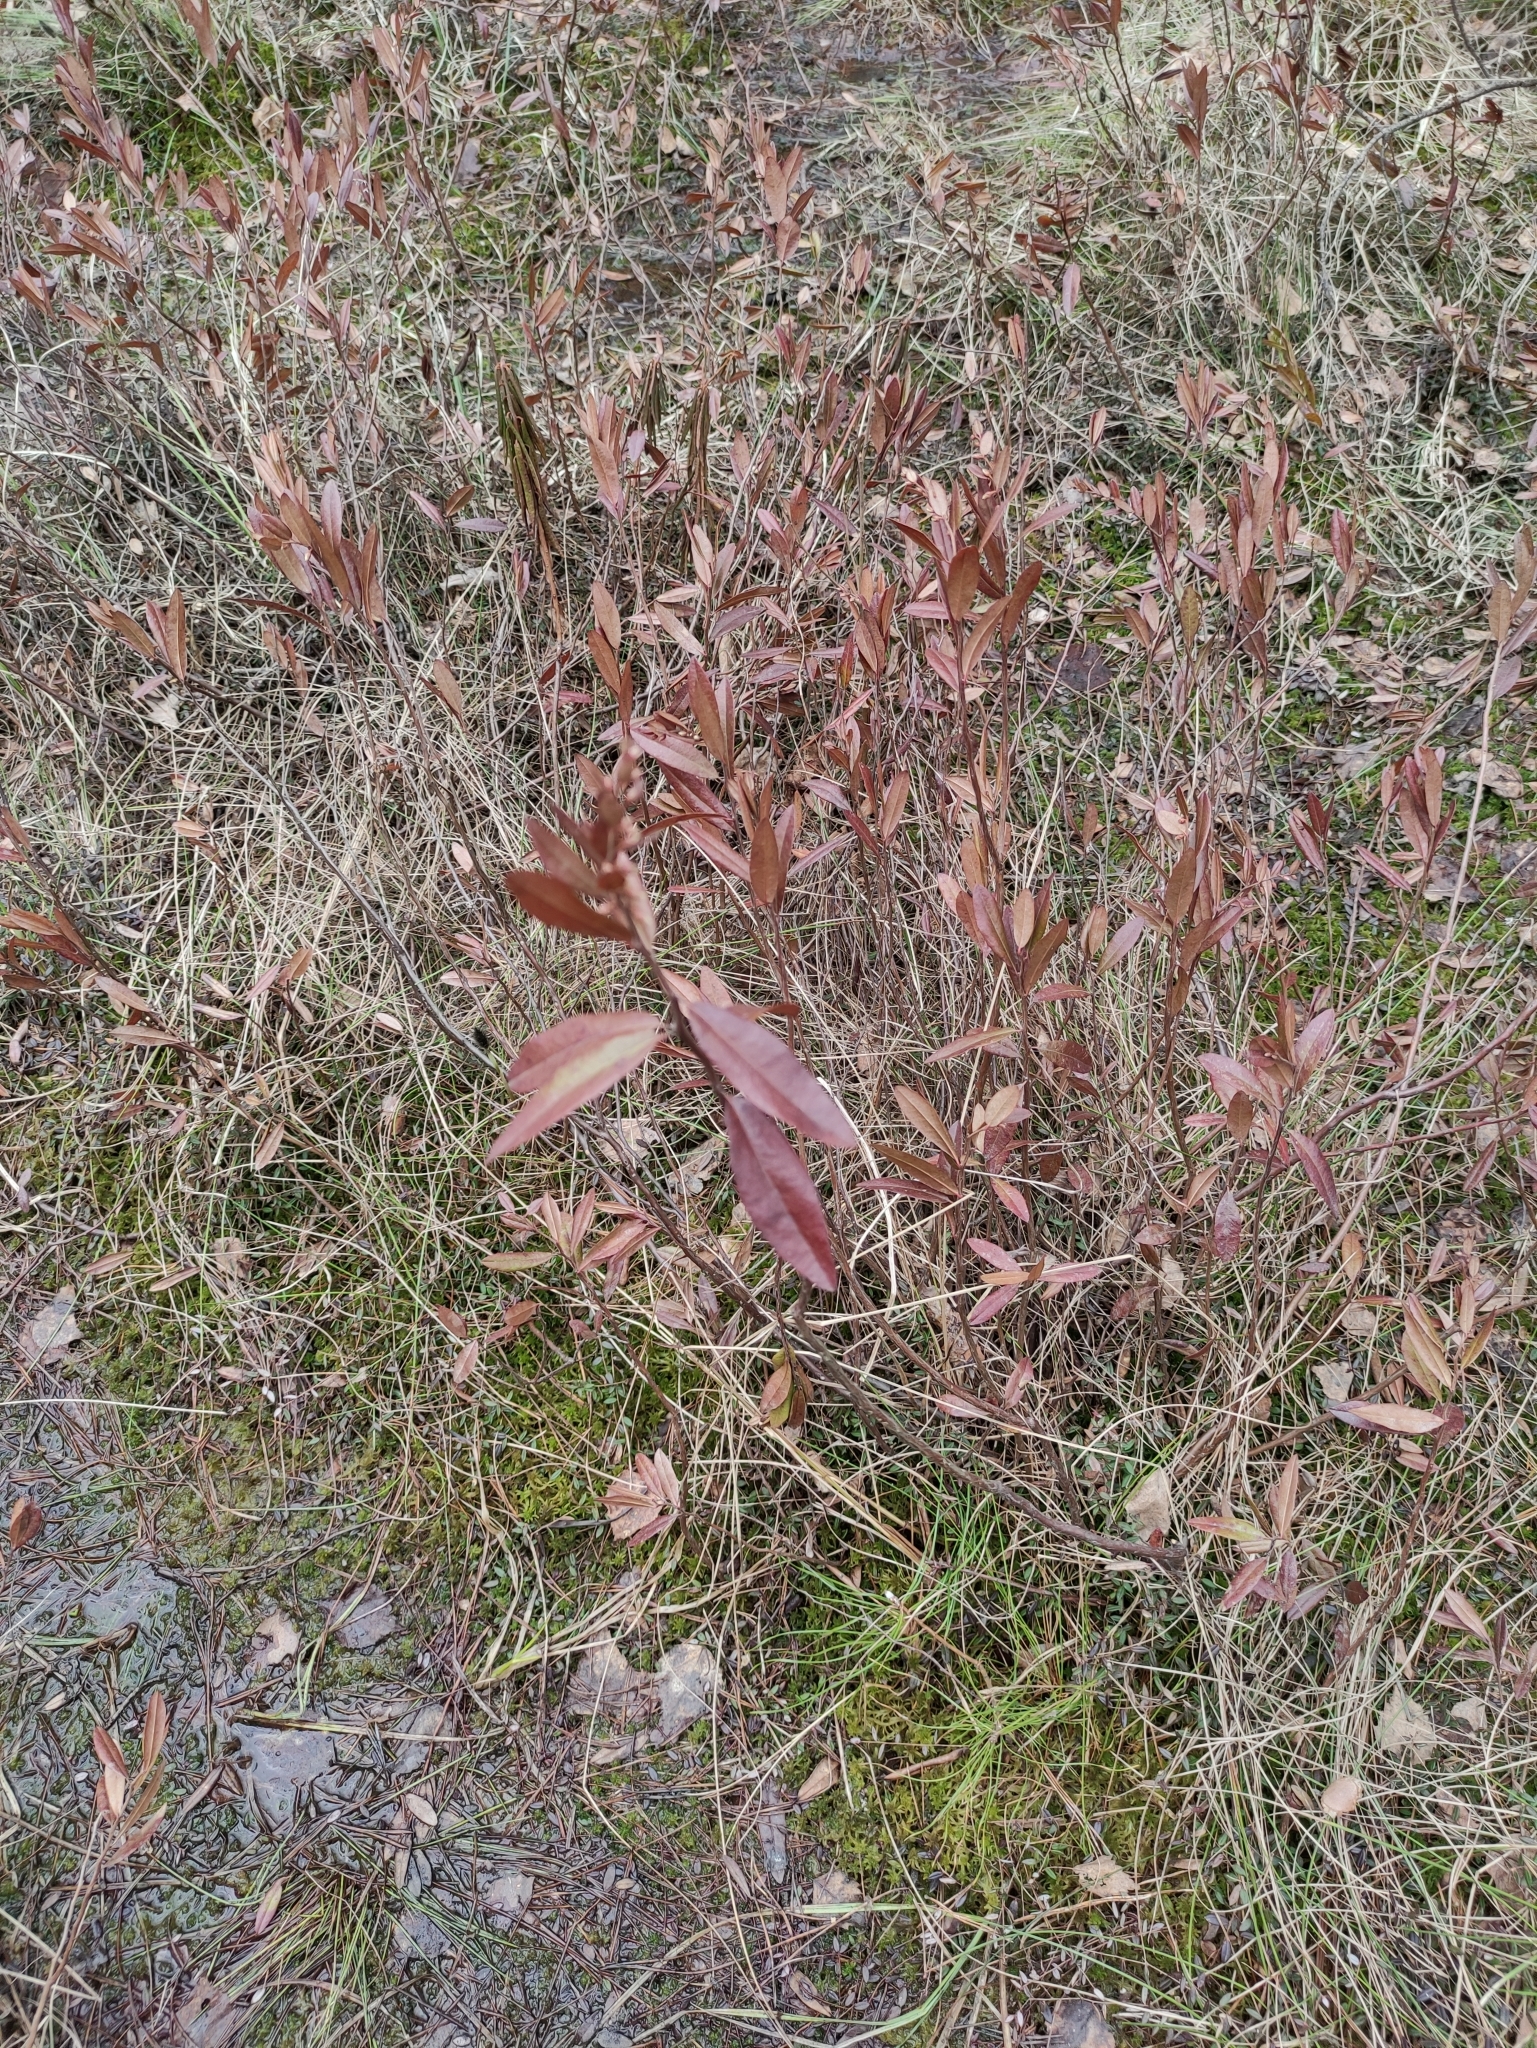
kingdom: Plantae
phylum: Tracheophyta
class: Magnoliopsida
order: Ericales
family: Ericaceae
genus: Chamaedaphne
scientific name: Chamaedaphne calyculata
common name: Leatherleaf
